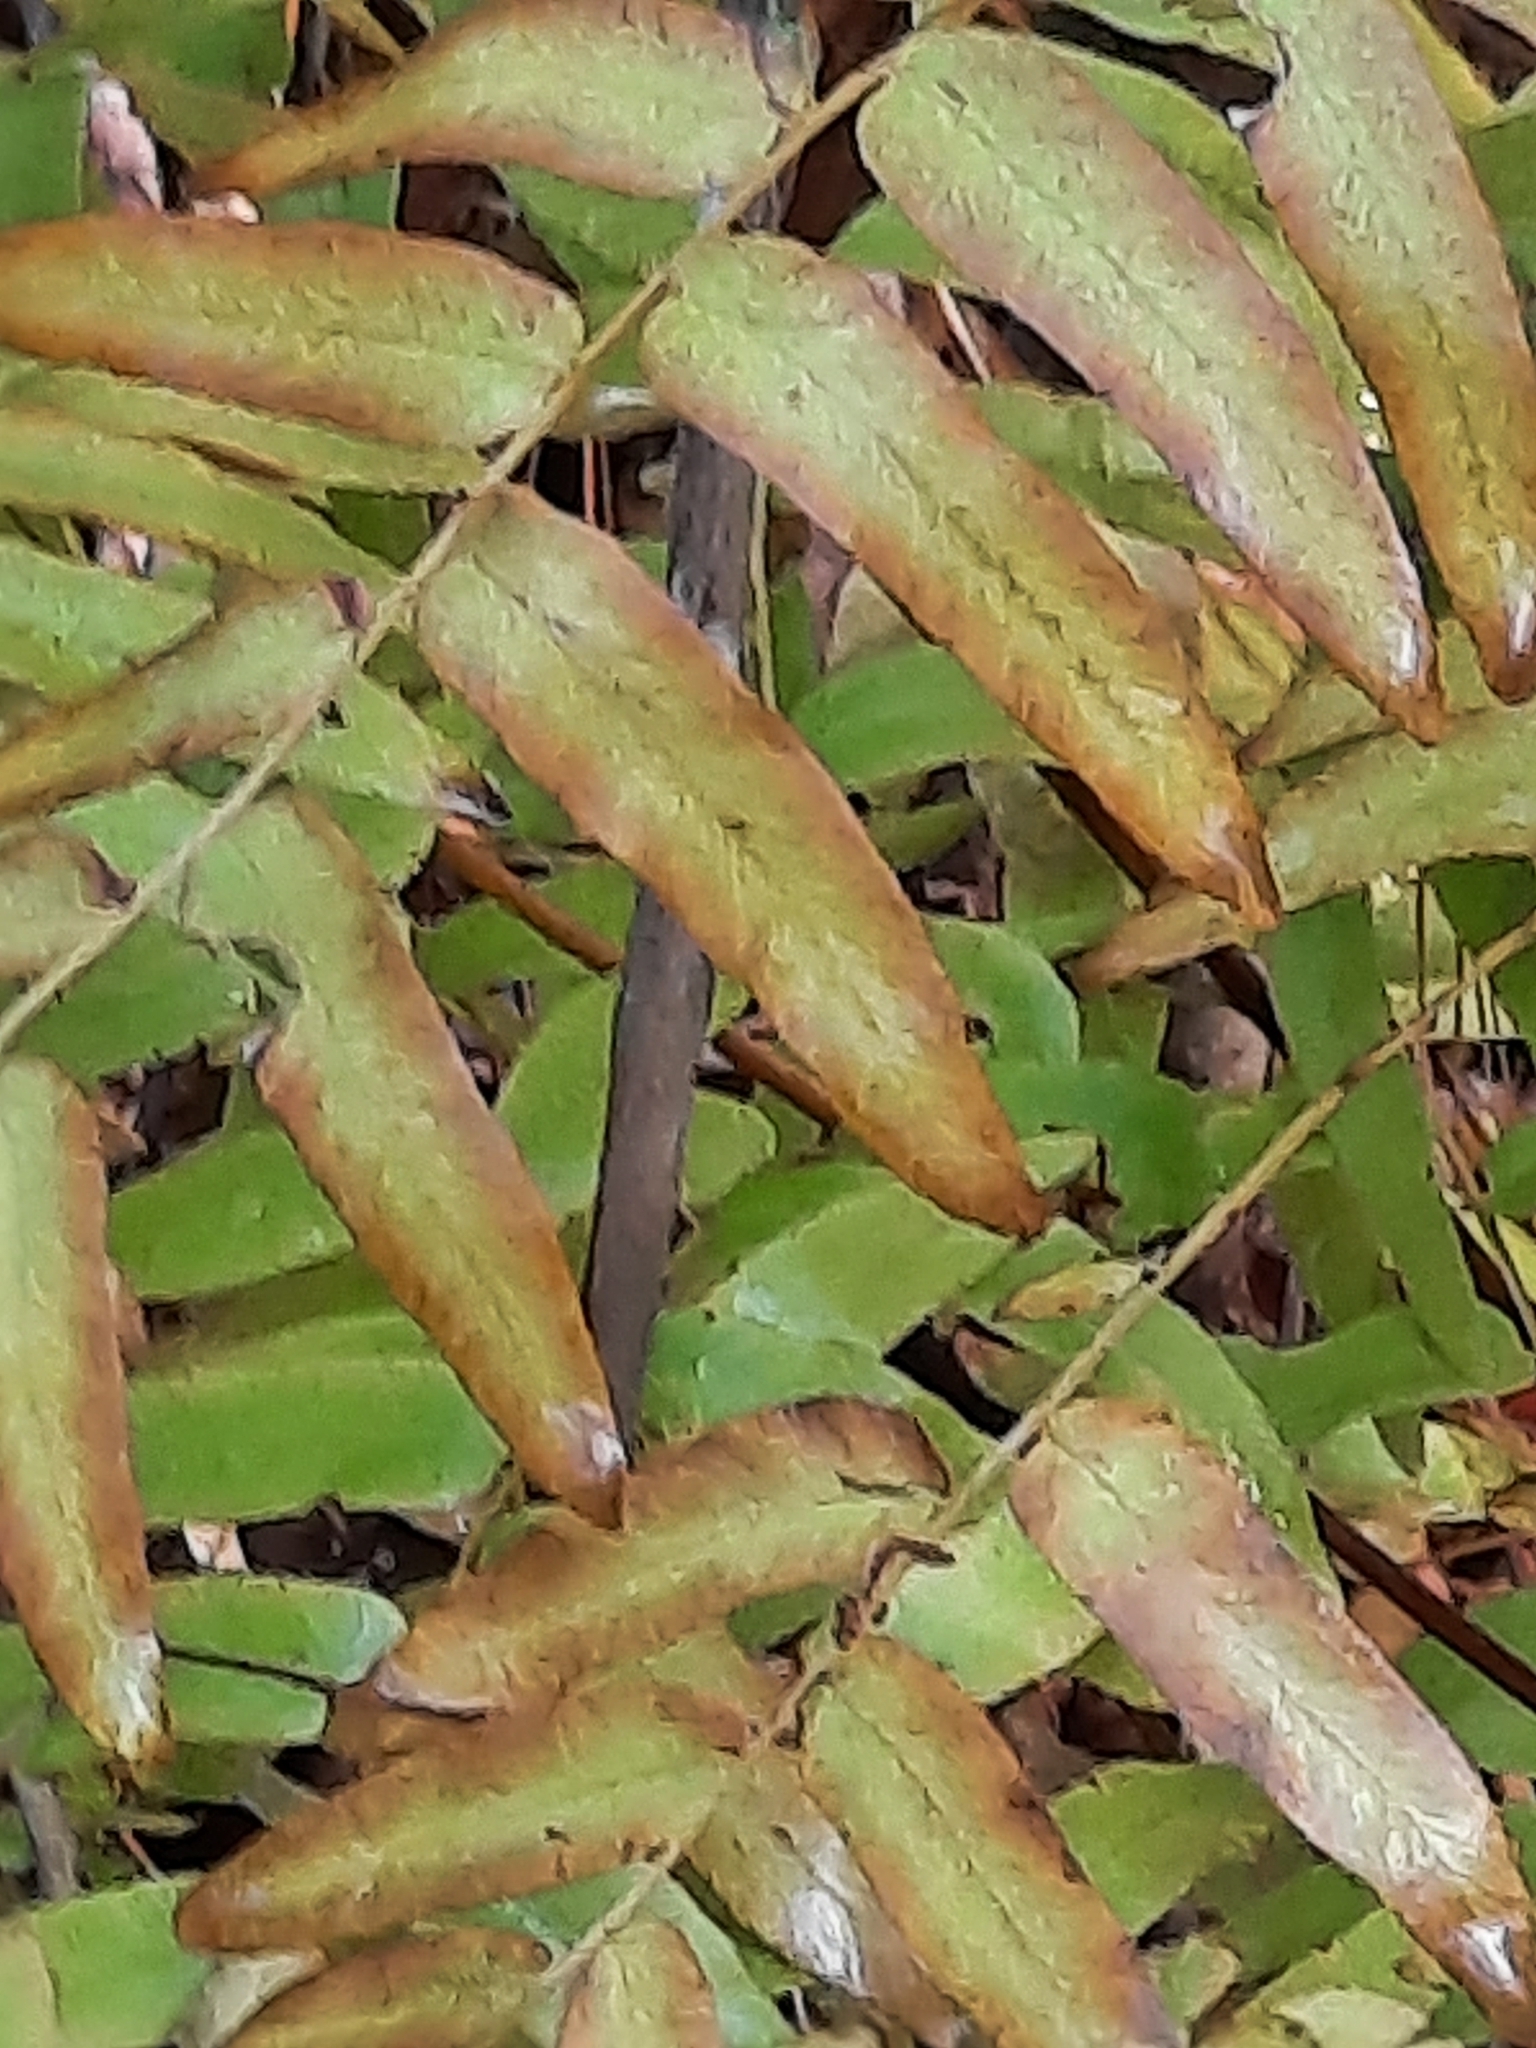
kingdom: Plantae
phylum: Tracheophyta
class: Polypodiopsida
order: Osmundales
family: Osmundaceae
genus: Osmunda
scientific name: Osmunda spectabilis
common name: American royal fern
